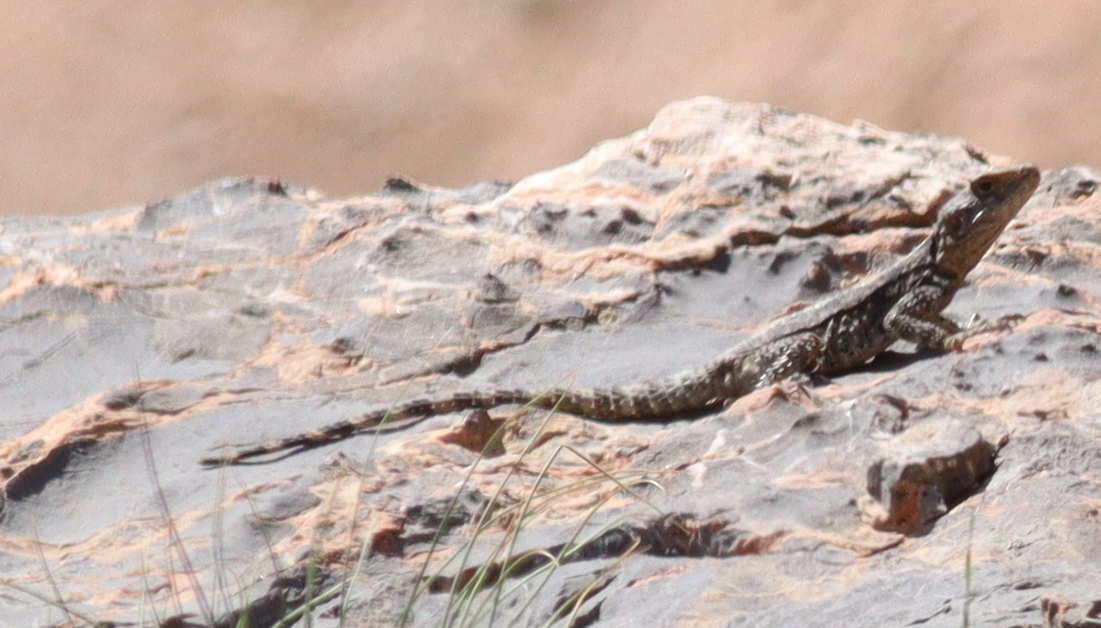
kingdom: Animalia
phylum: Chordata
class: Squamata
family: Agamidae
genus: Stellagama
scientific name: Stellagama stellio
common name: Starred agama
